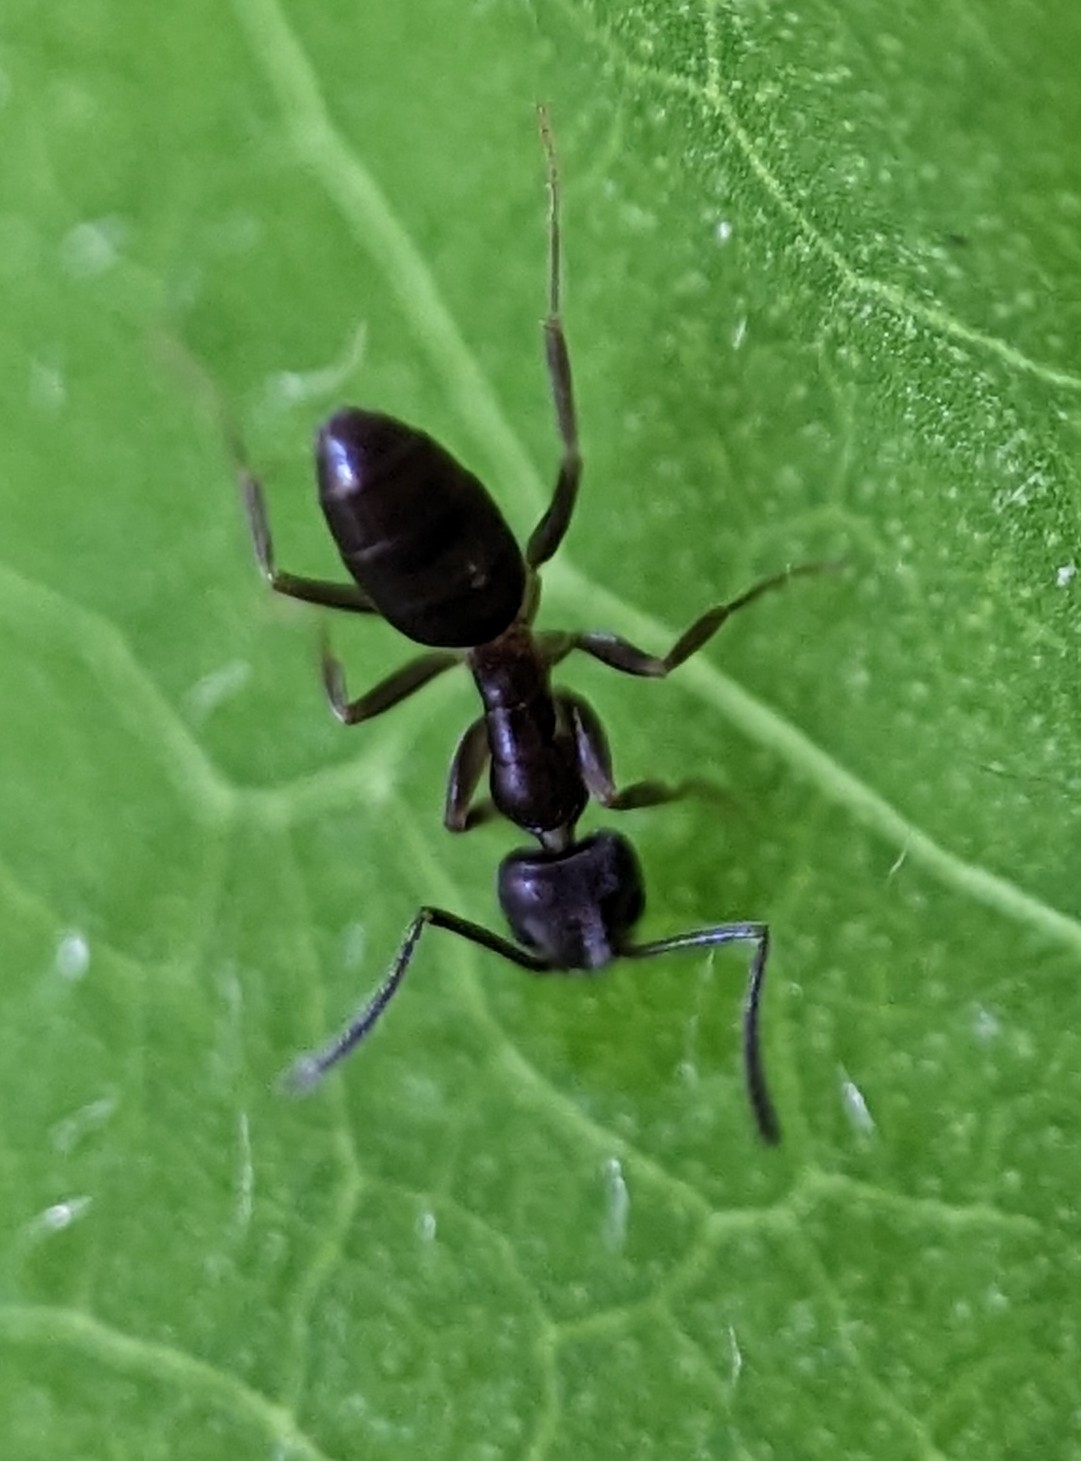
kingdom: Animalia
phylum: Arthropoda
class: Insecta
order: Hymenoptera
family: Formicidae
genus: Tapinoma
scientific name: Tapinoma sessile
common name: Odorous house ant
